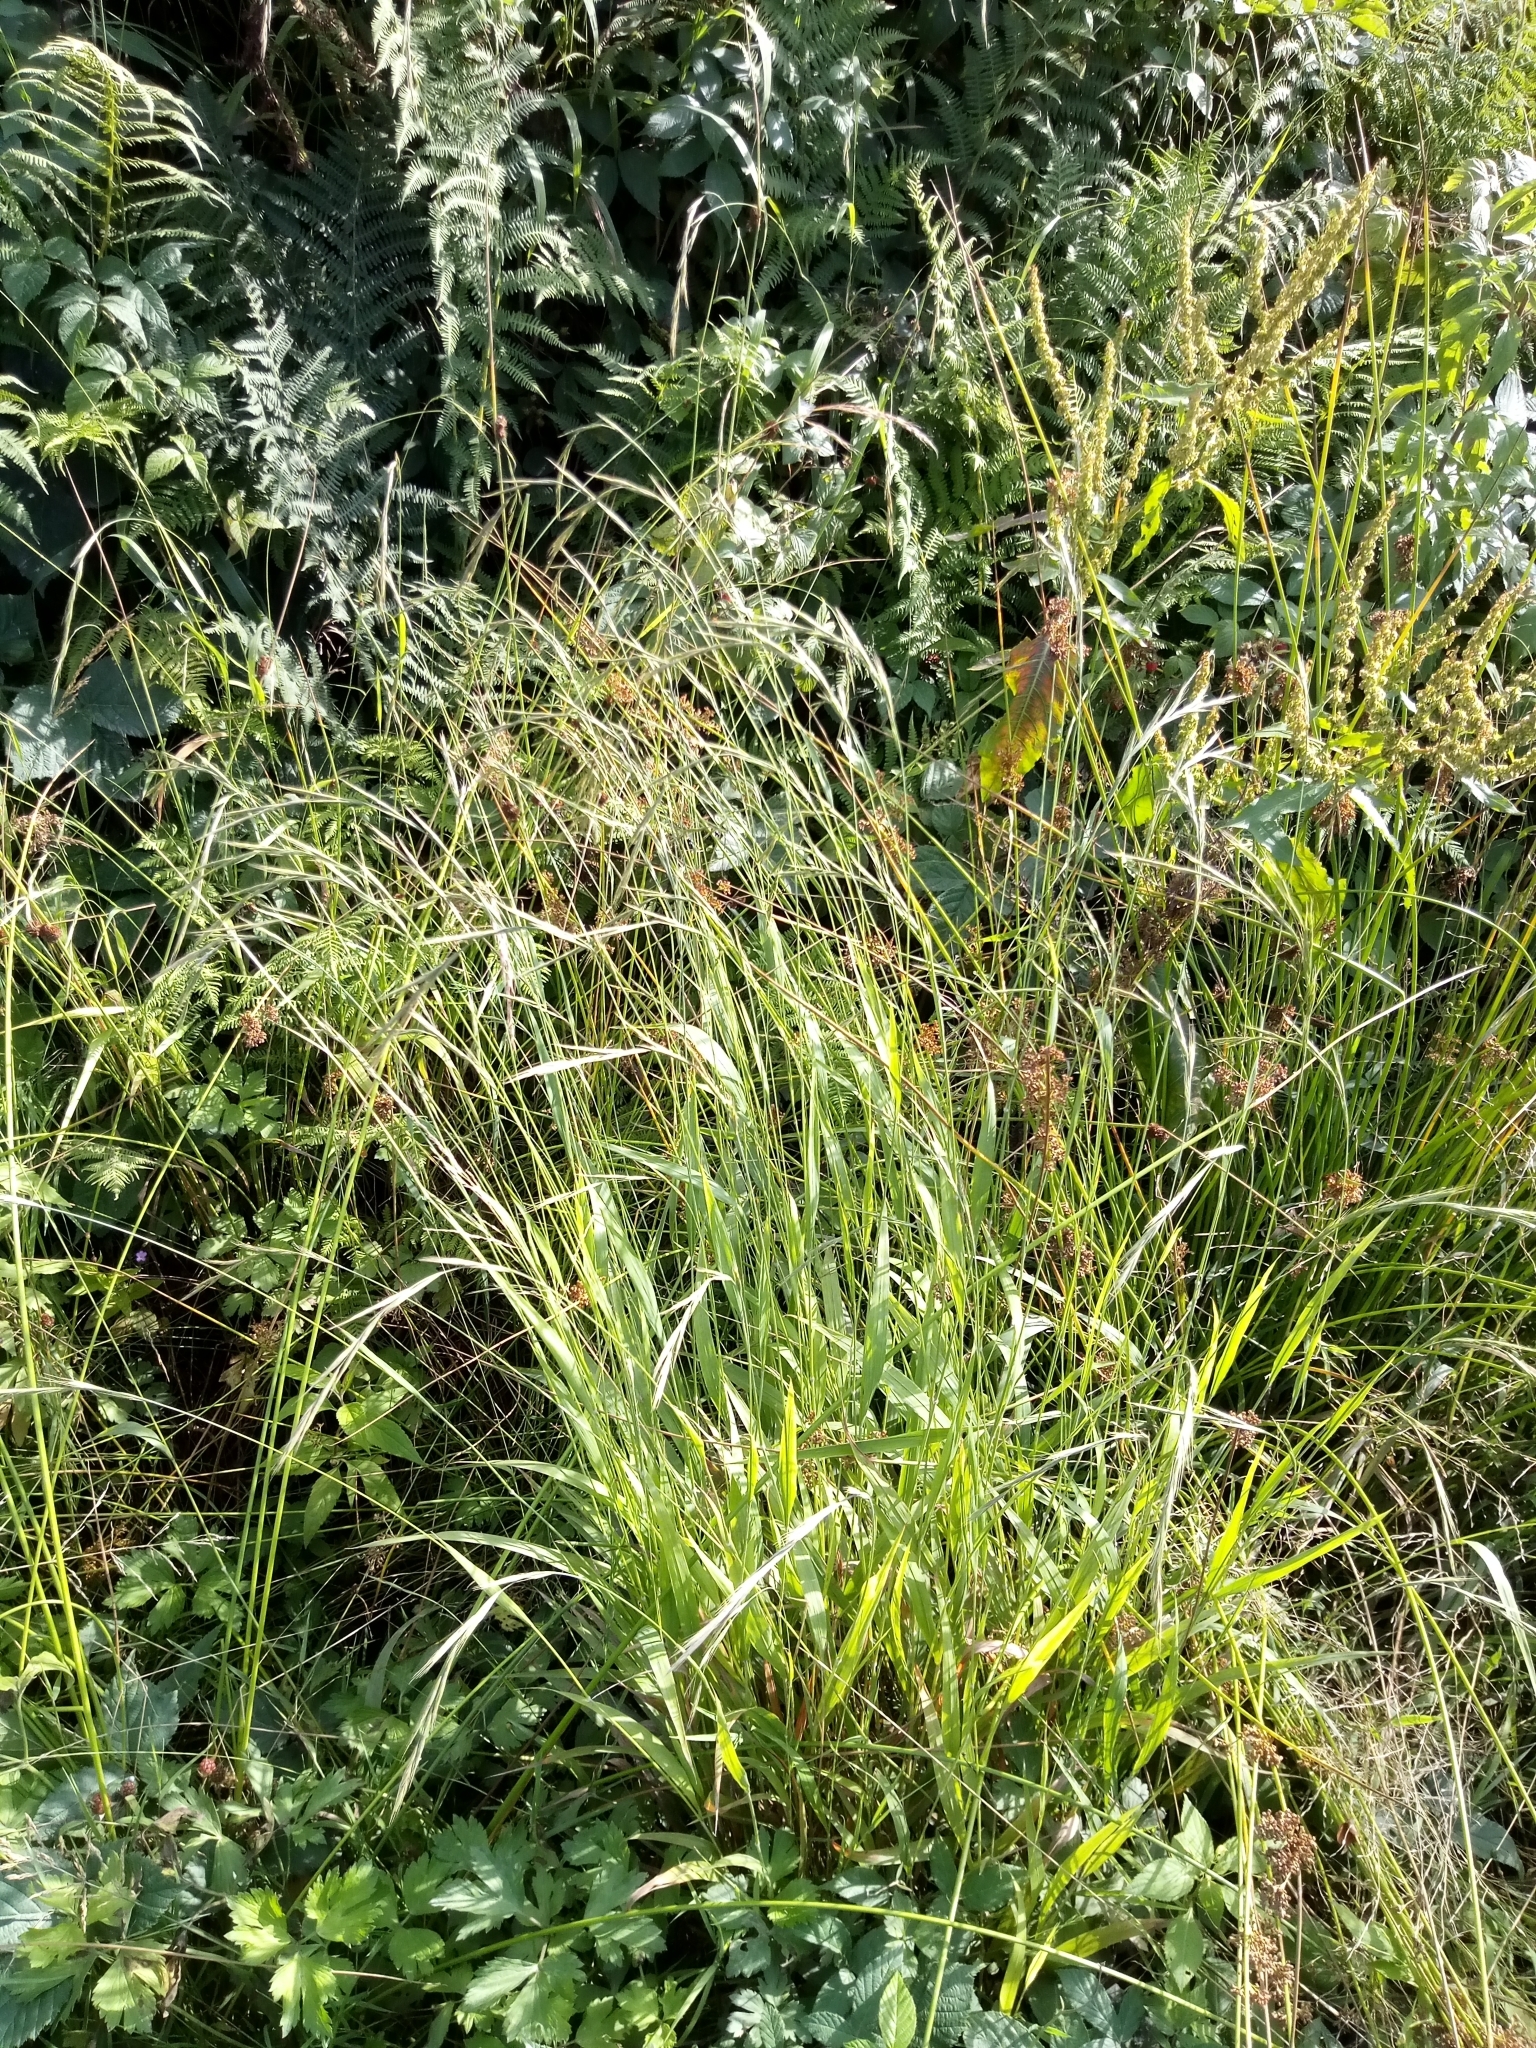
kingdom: Plantae
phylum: Tracheophyta
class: Liliopsida
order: Poales
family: Poaceae
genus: Brachypodium
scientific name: Brachypodium sylvaticum
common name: False-brome
